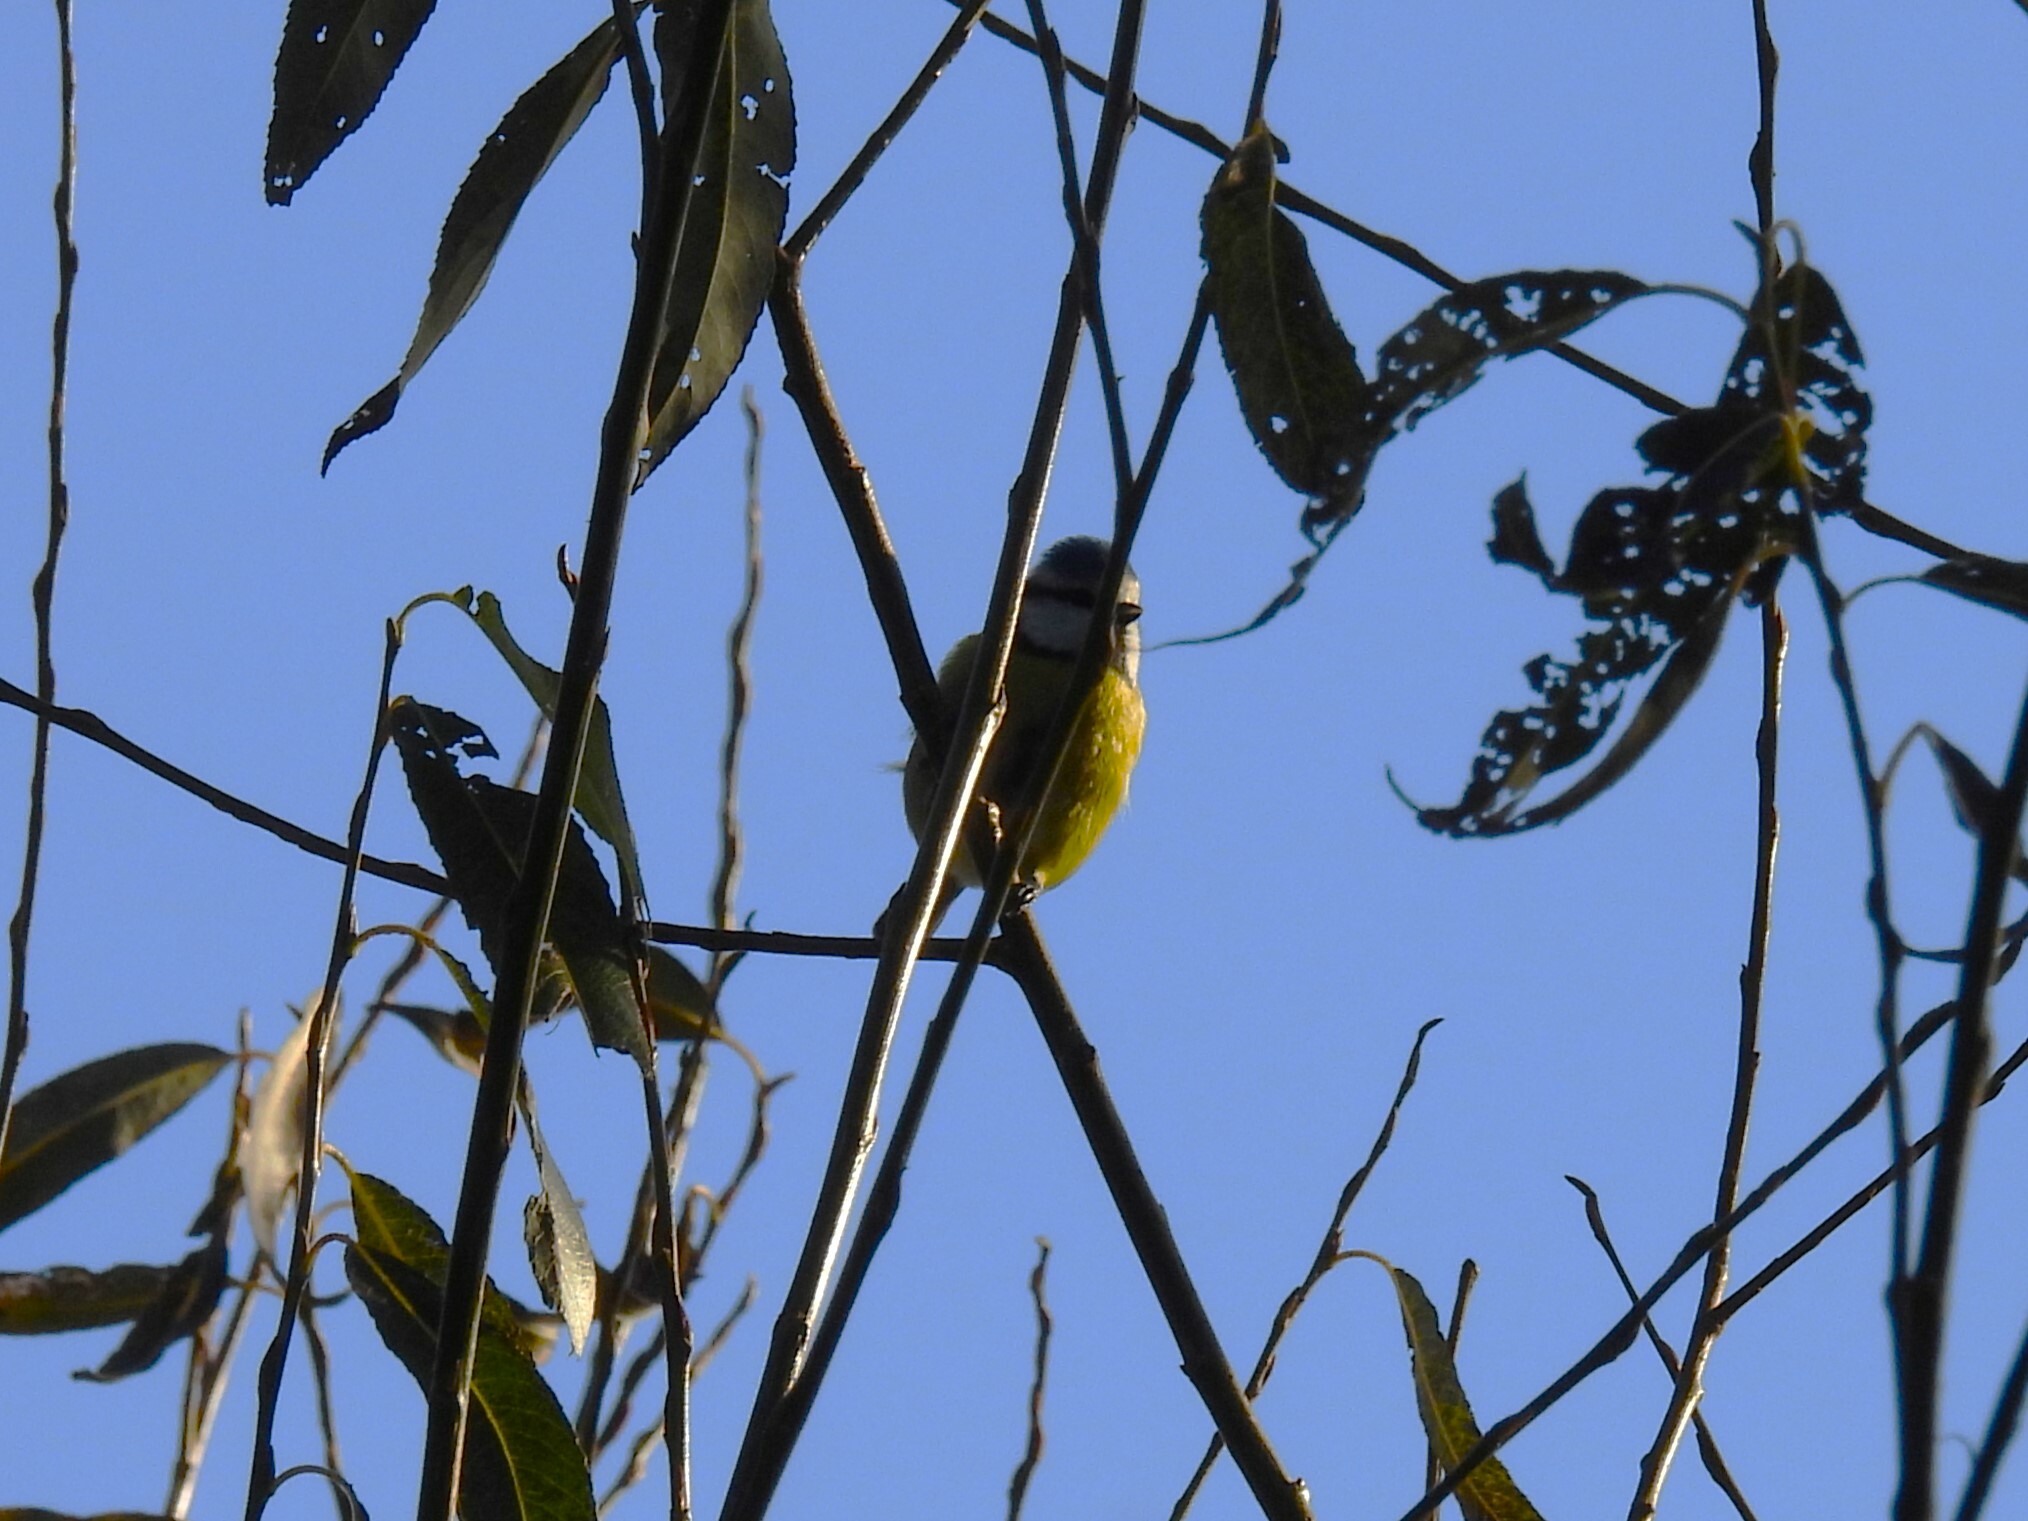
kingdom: Animalia
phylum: Chordata
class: Aves
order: Passeriformes
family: Paridae
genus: Cyanistes
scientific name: Cyanistes caeruleus
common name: Eurasian blue tit
